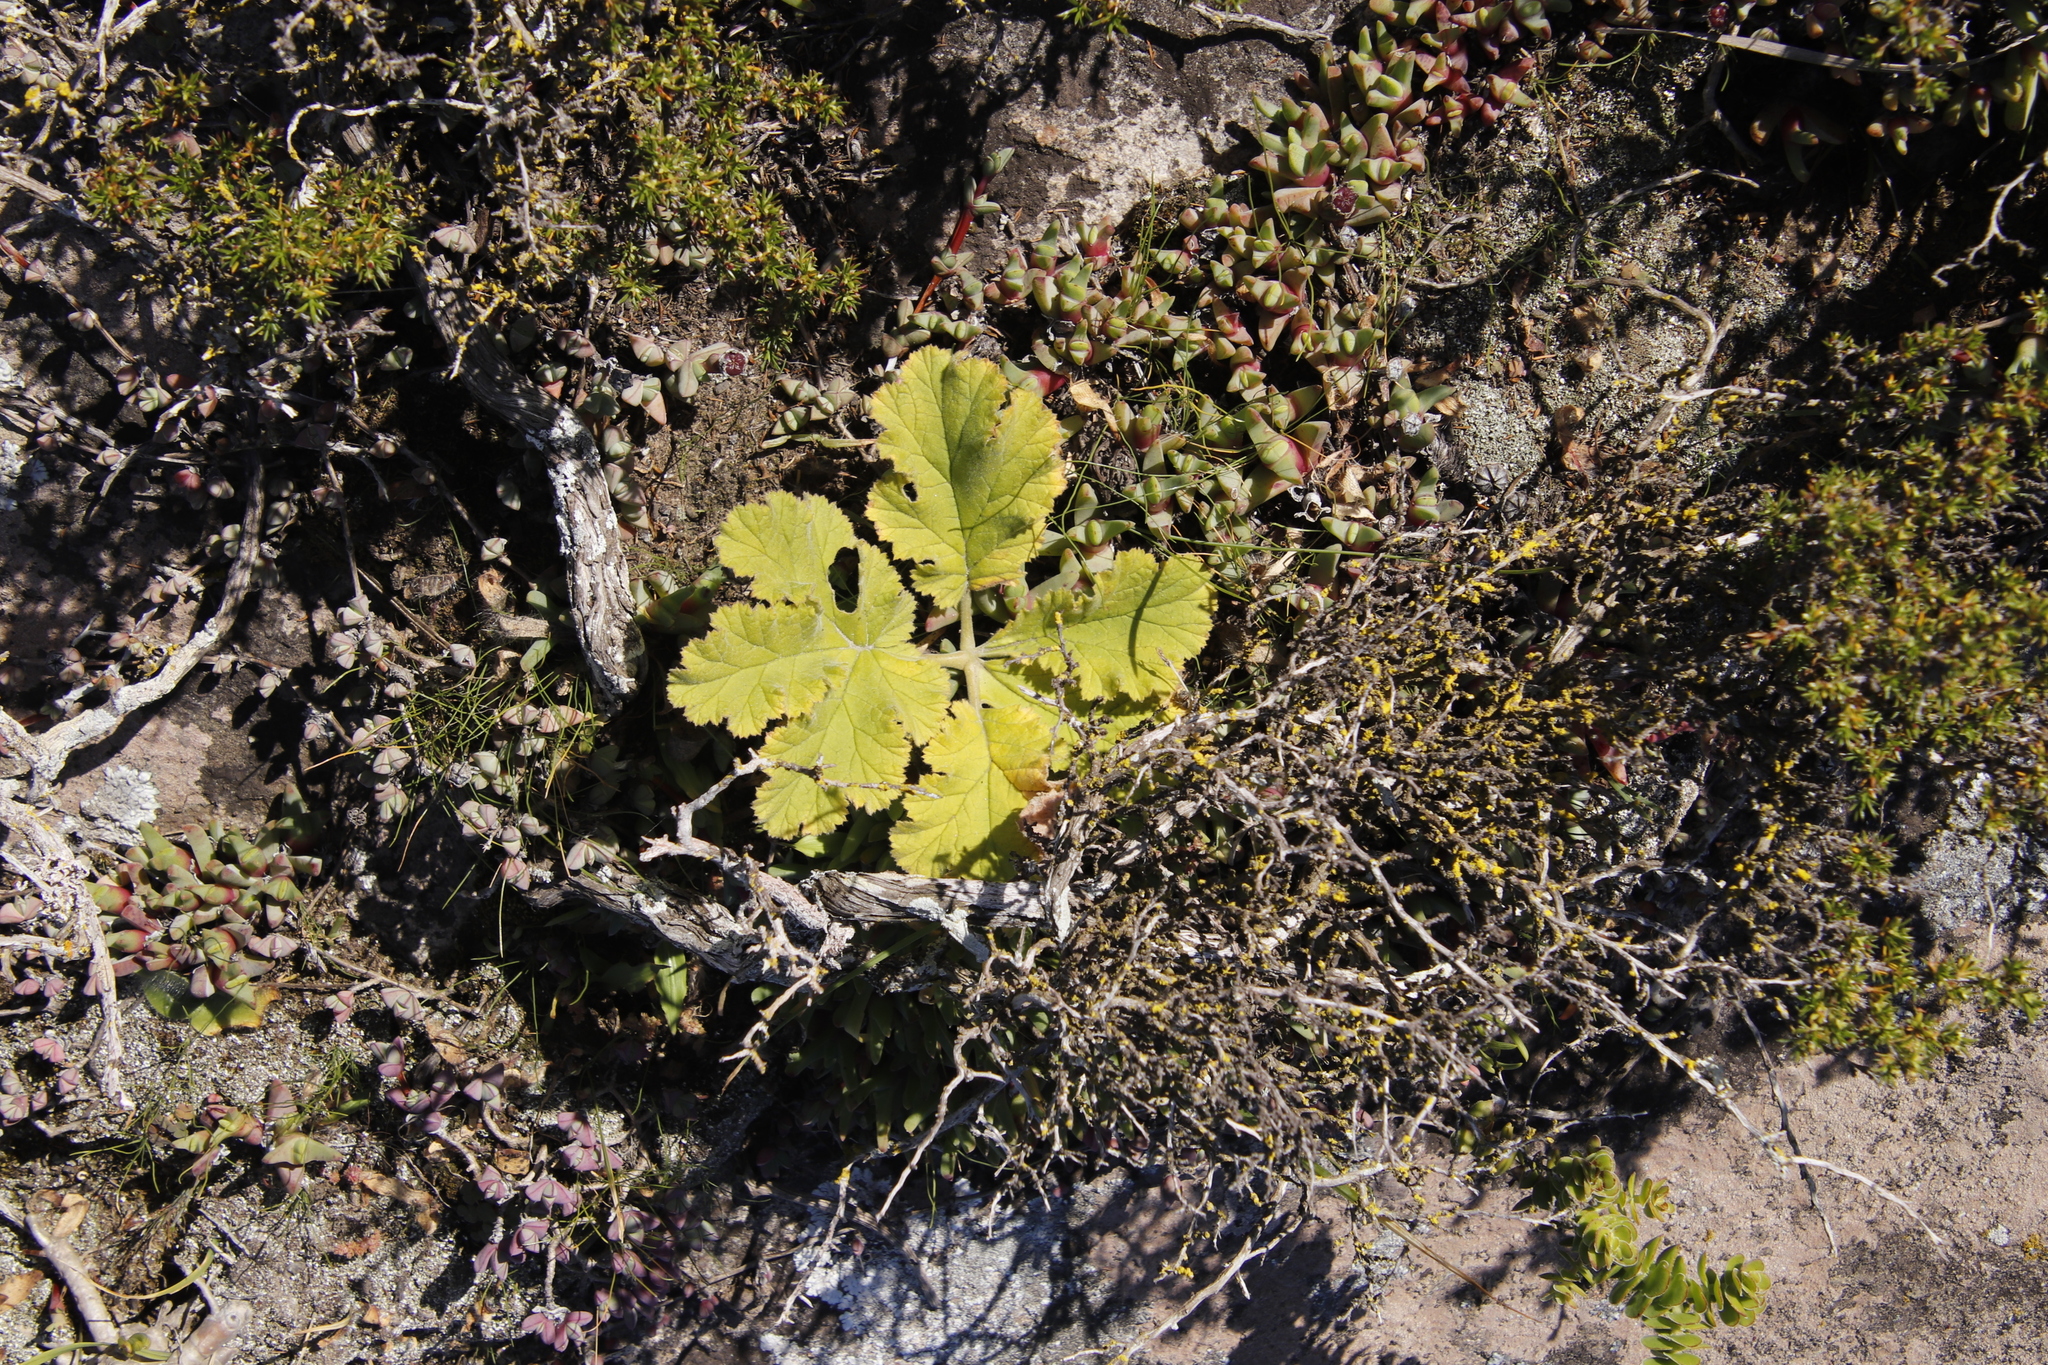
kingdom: Plantae
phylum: Tracheophyta
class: Magnoliopsida
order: Geraniales
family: Geraniaceae
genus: Pelargonium
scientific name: Pelargonium lobatum
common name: Vine-leaf pelargonium
